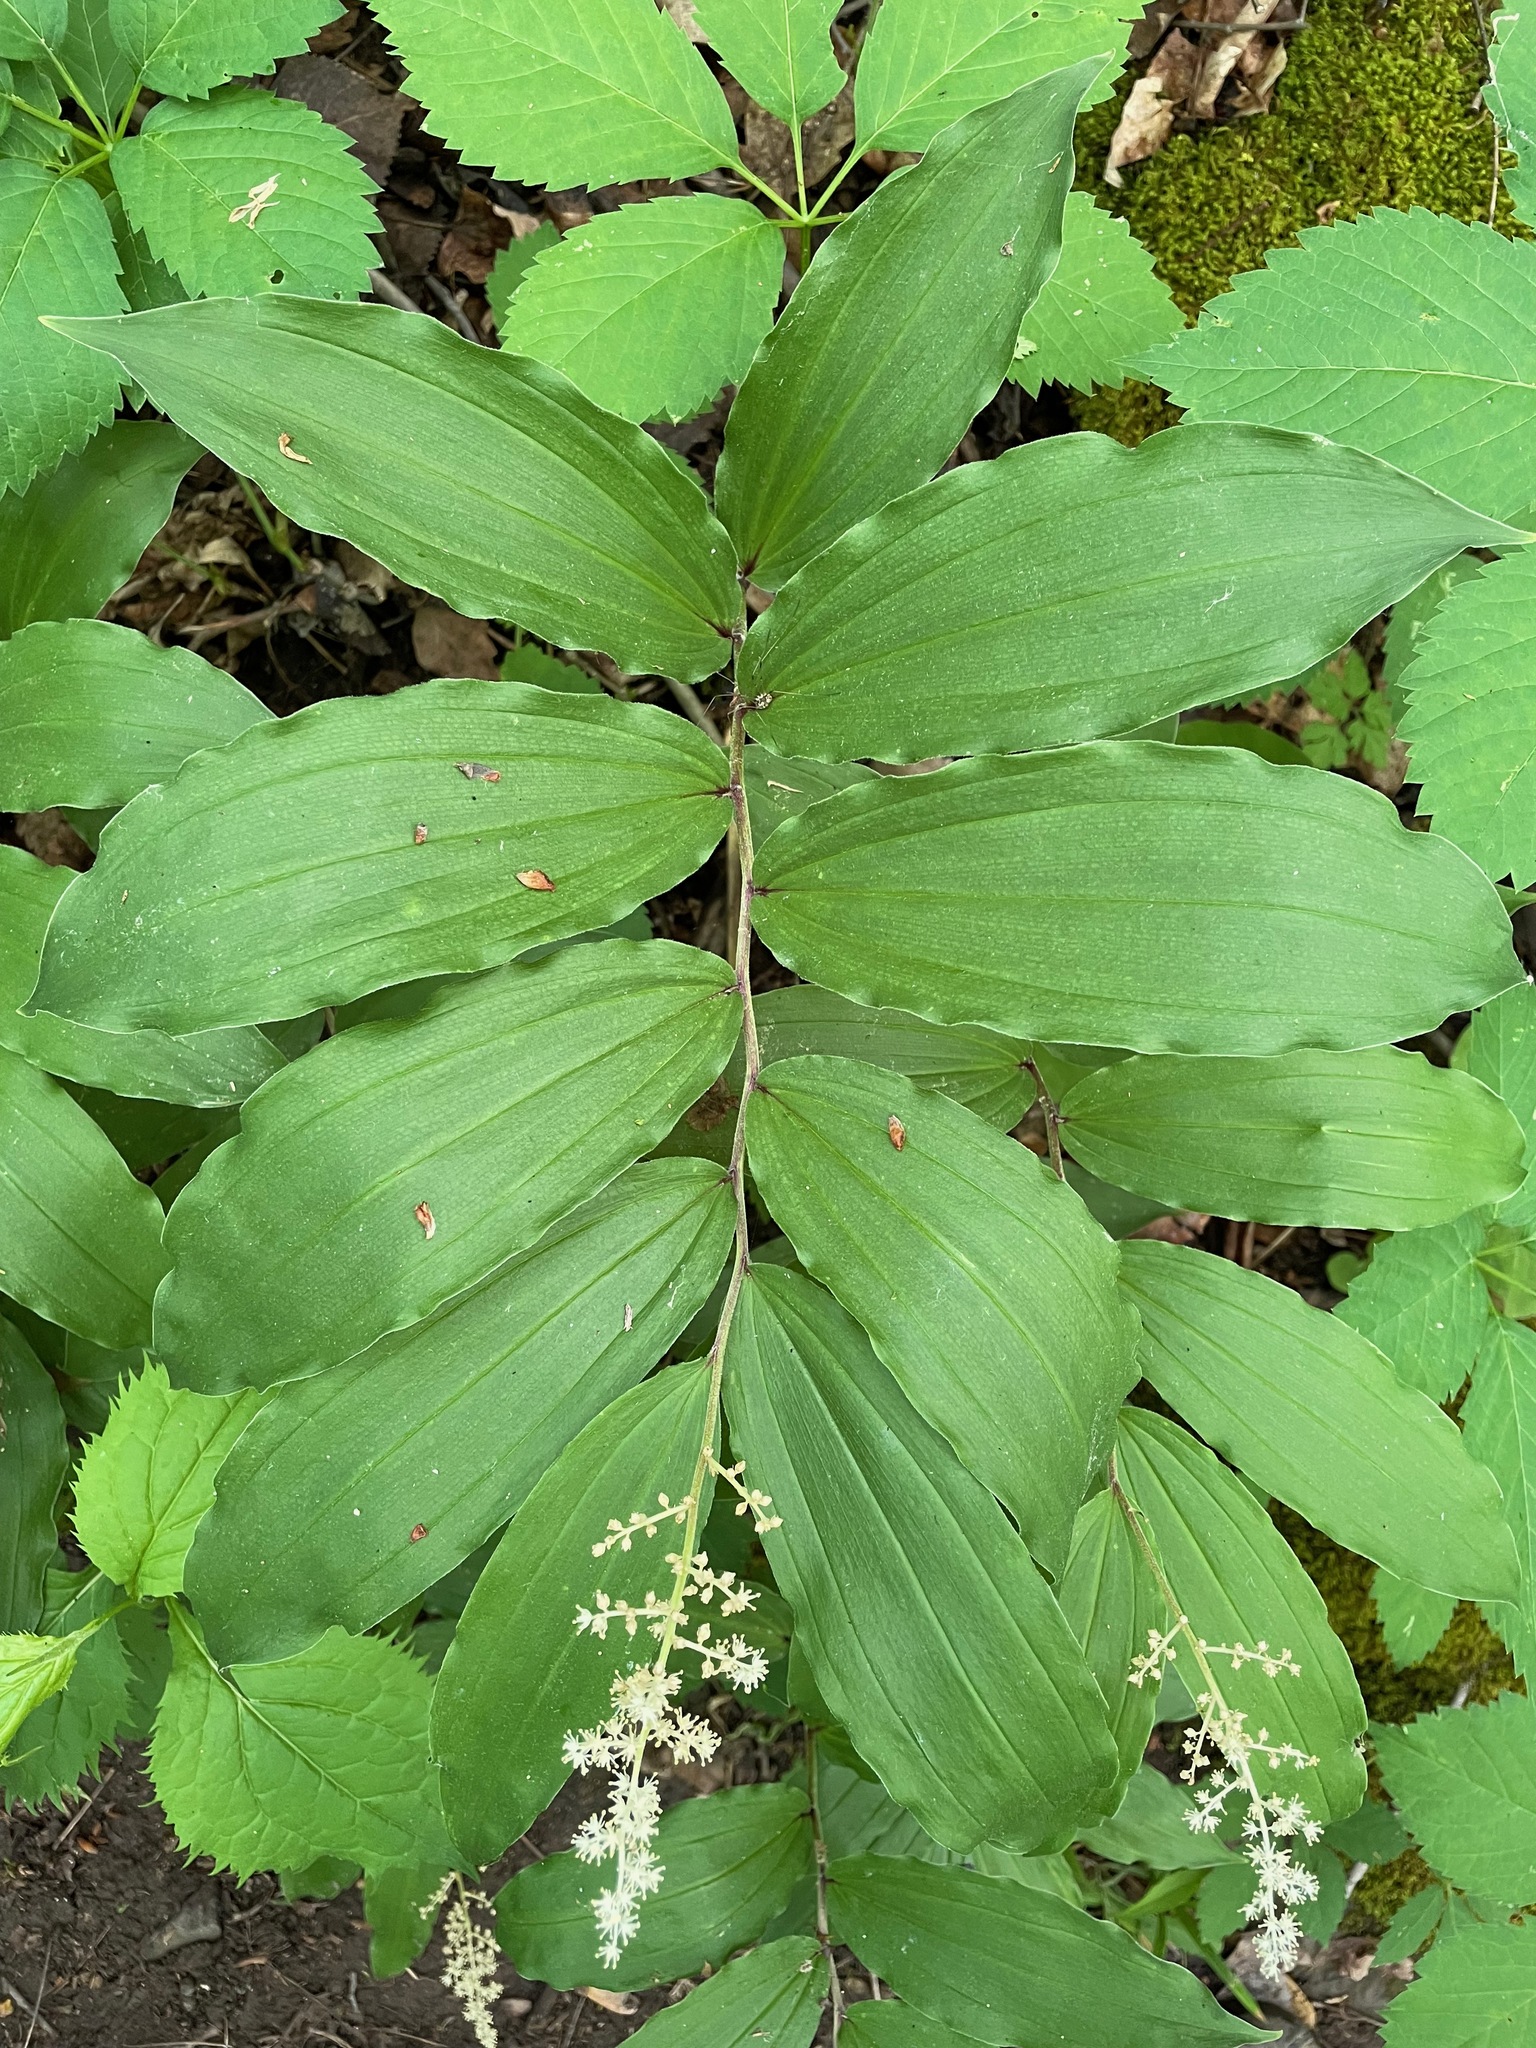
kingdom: Plantae
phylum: Tracheophyta
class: Liliopsida
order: Asparagales
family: Asparagaceae
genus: Maianthemum
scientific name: Maianthemum racemosum
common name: False spikenard
